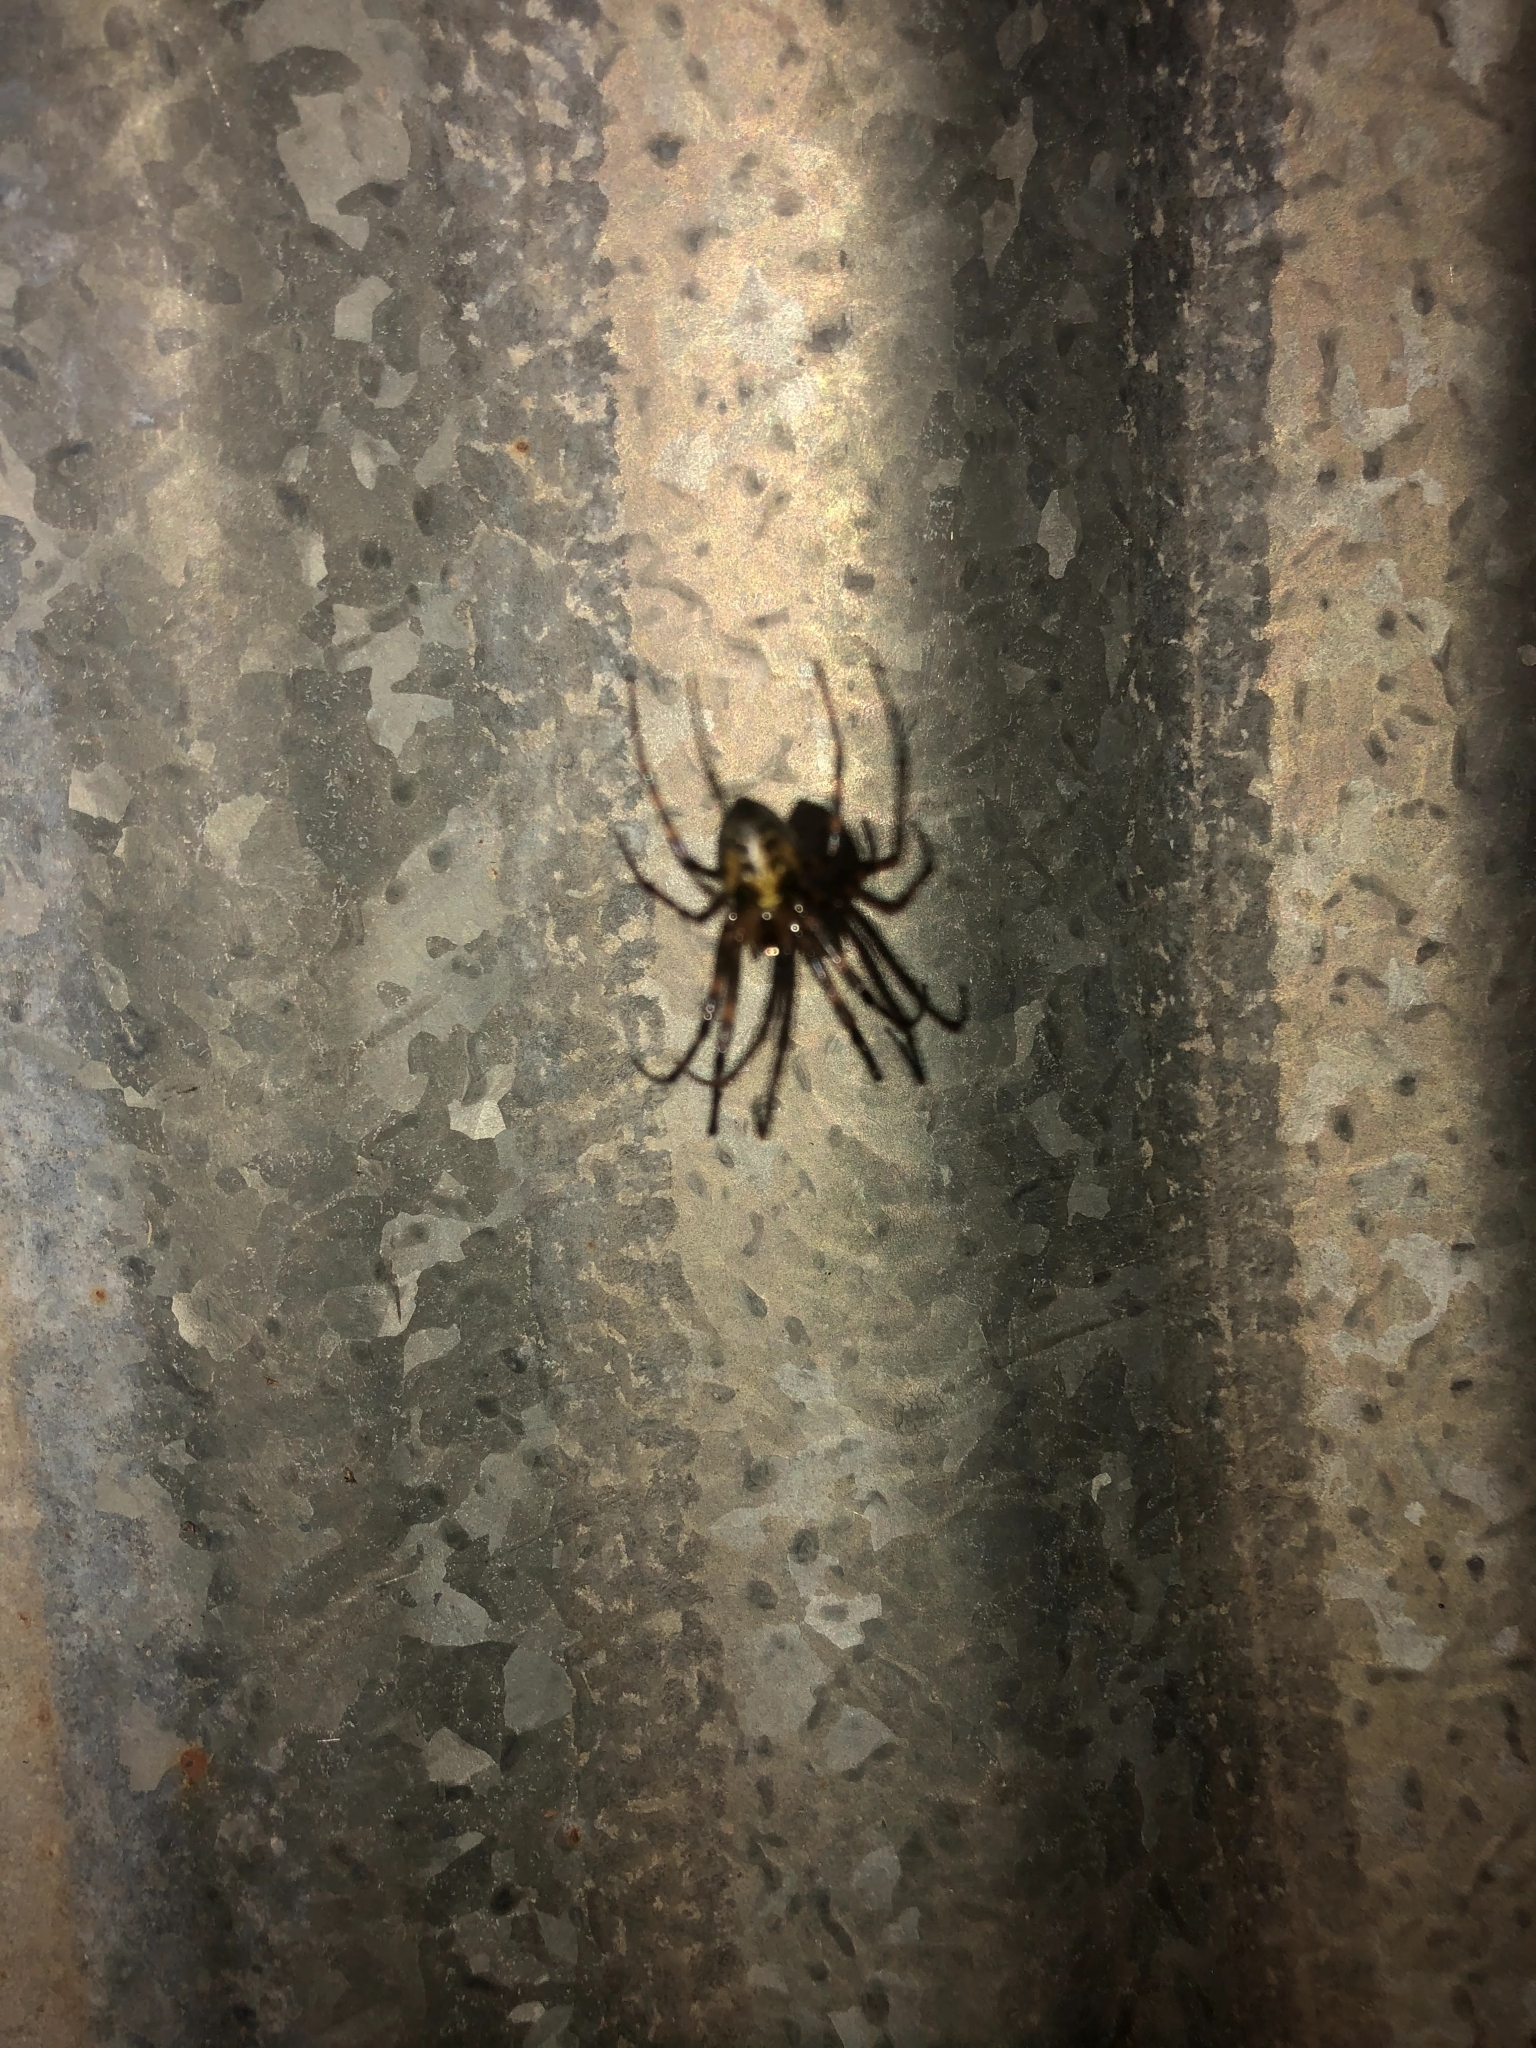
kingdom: Animalia
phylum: Arthropoda
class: Arachnida
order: Araneae
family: Tetragnathidae
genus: Meta
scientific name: Meta ovalis
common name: Eastern cave long-jawed spider
